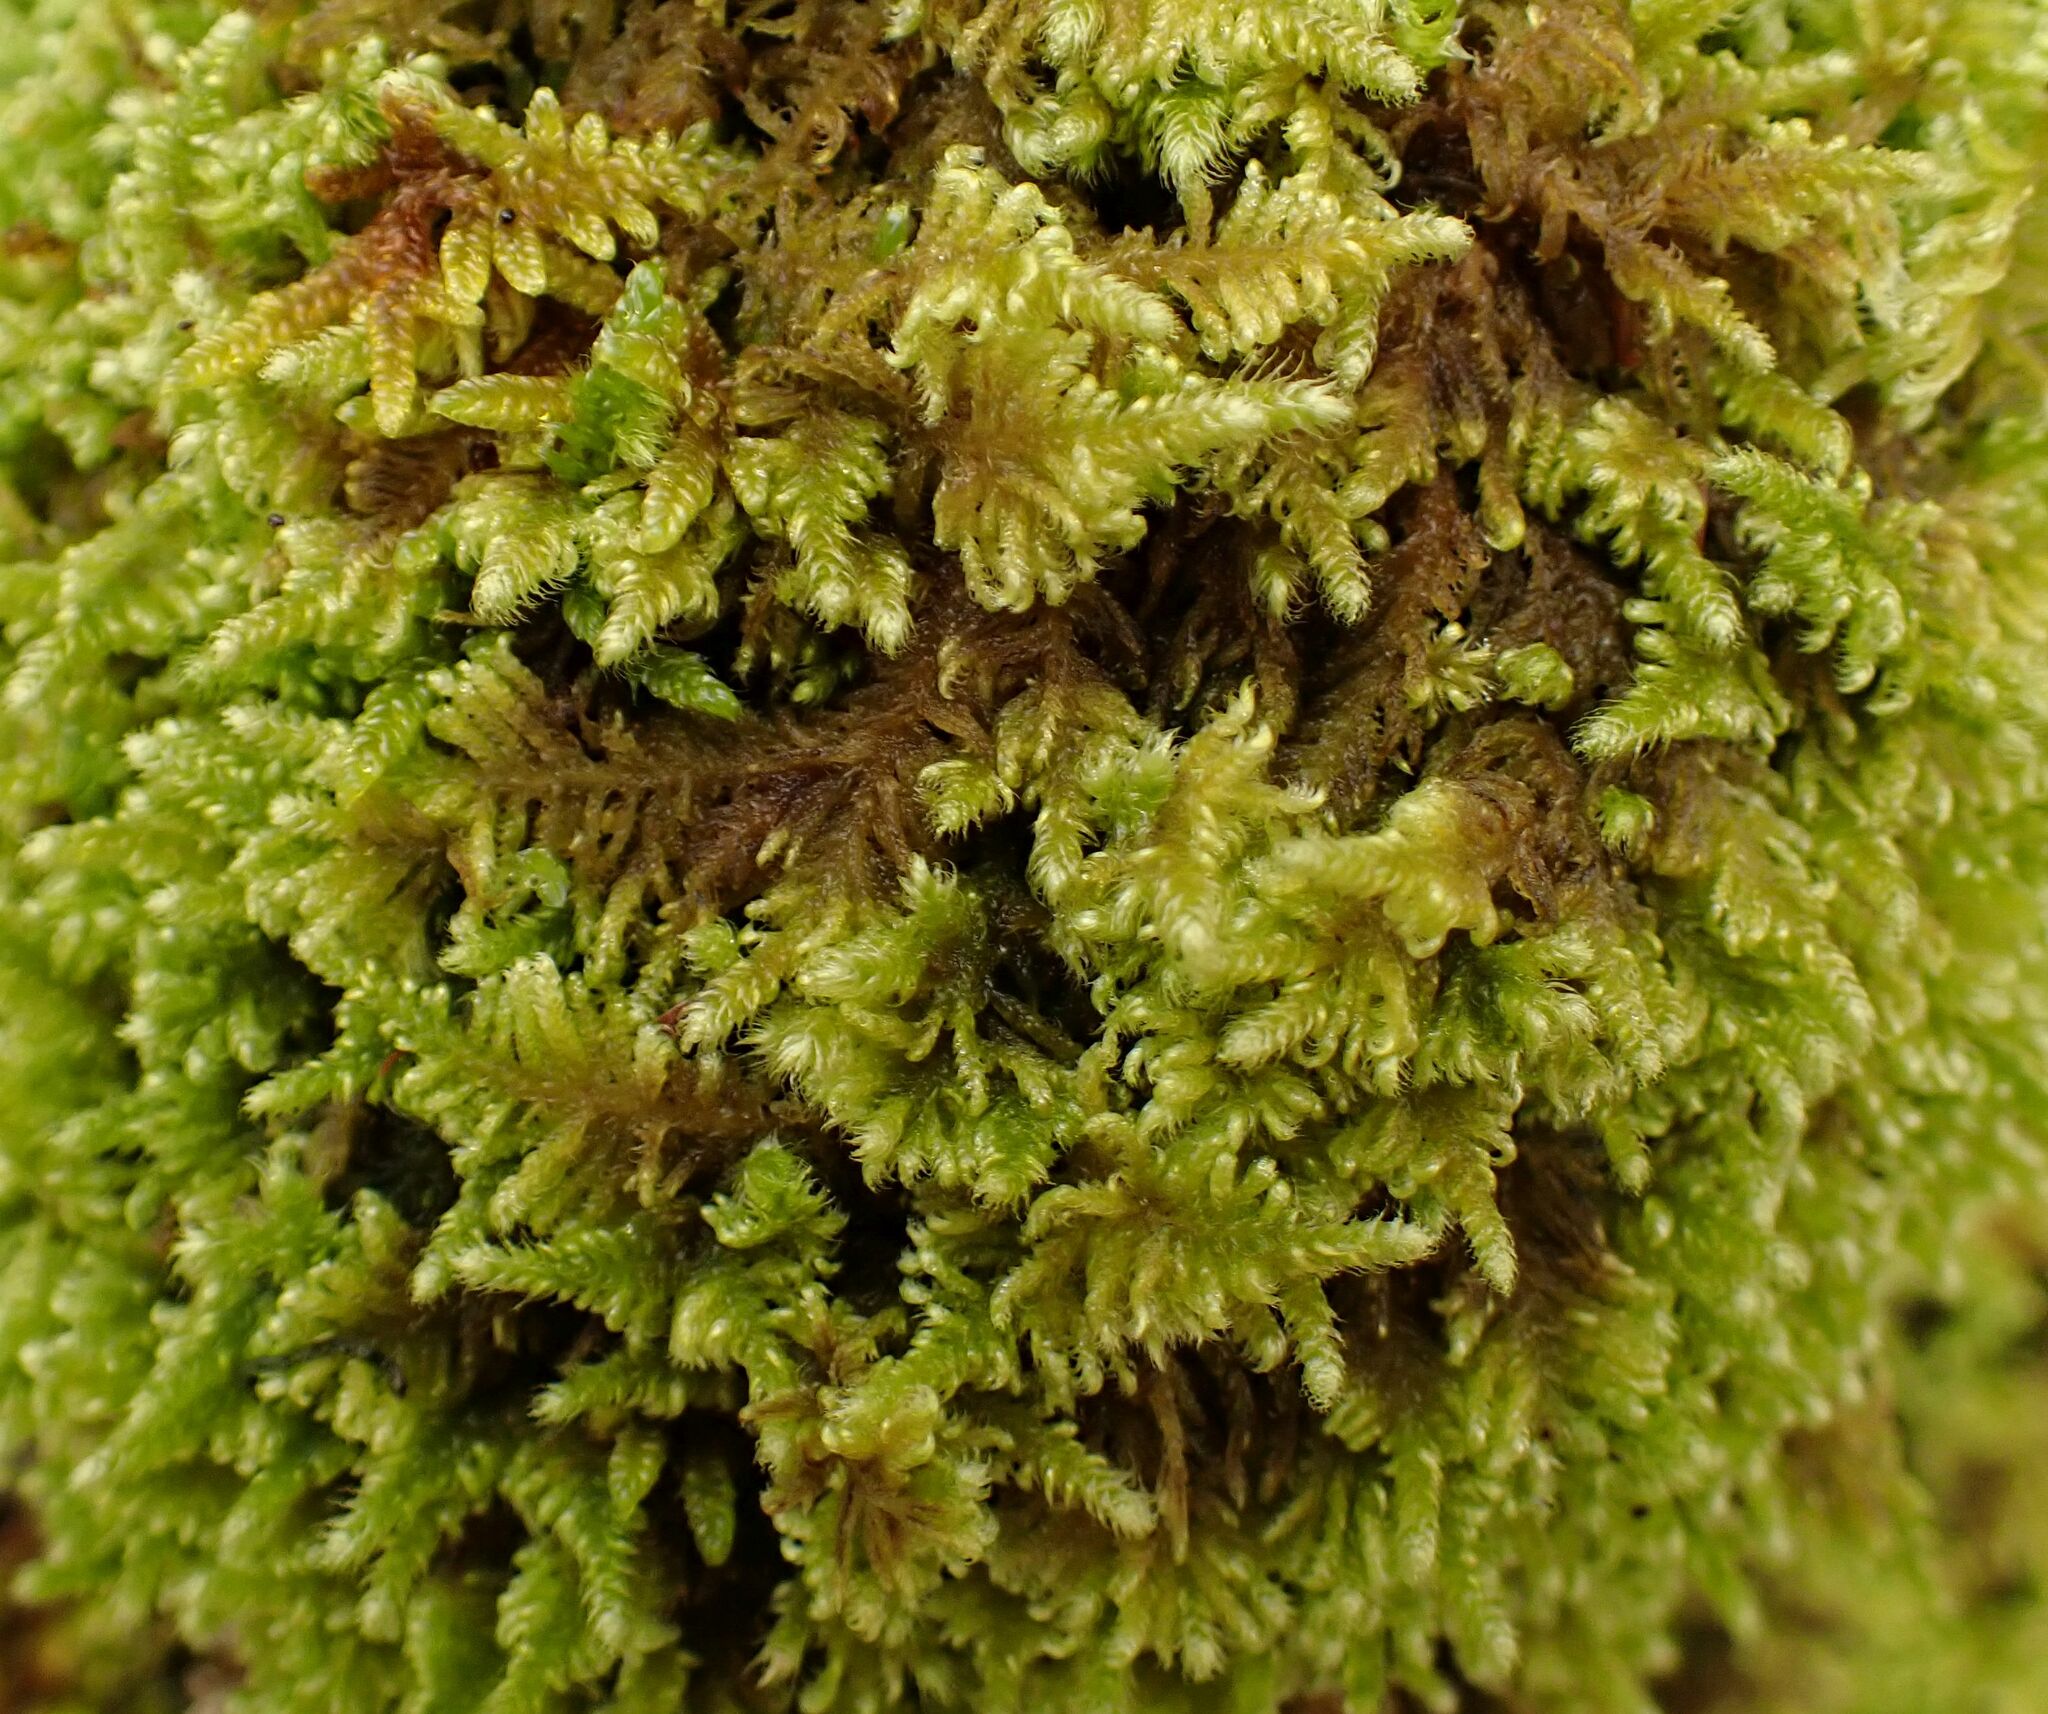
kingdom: Plantae
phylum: Bryophyta
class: Bryopsida
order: Hypnales
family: Myuriaceae
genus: Ctenidium
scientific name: Ctenidium molluscum
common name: Chalk comb-moss
